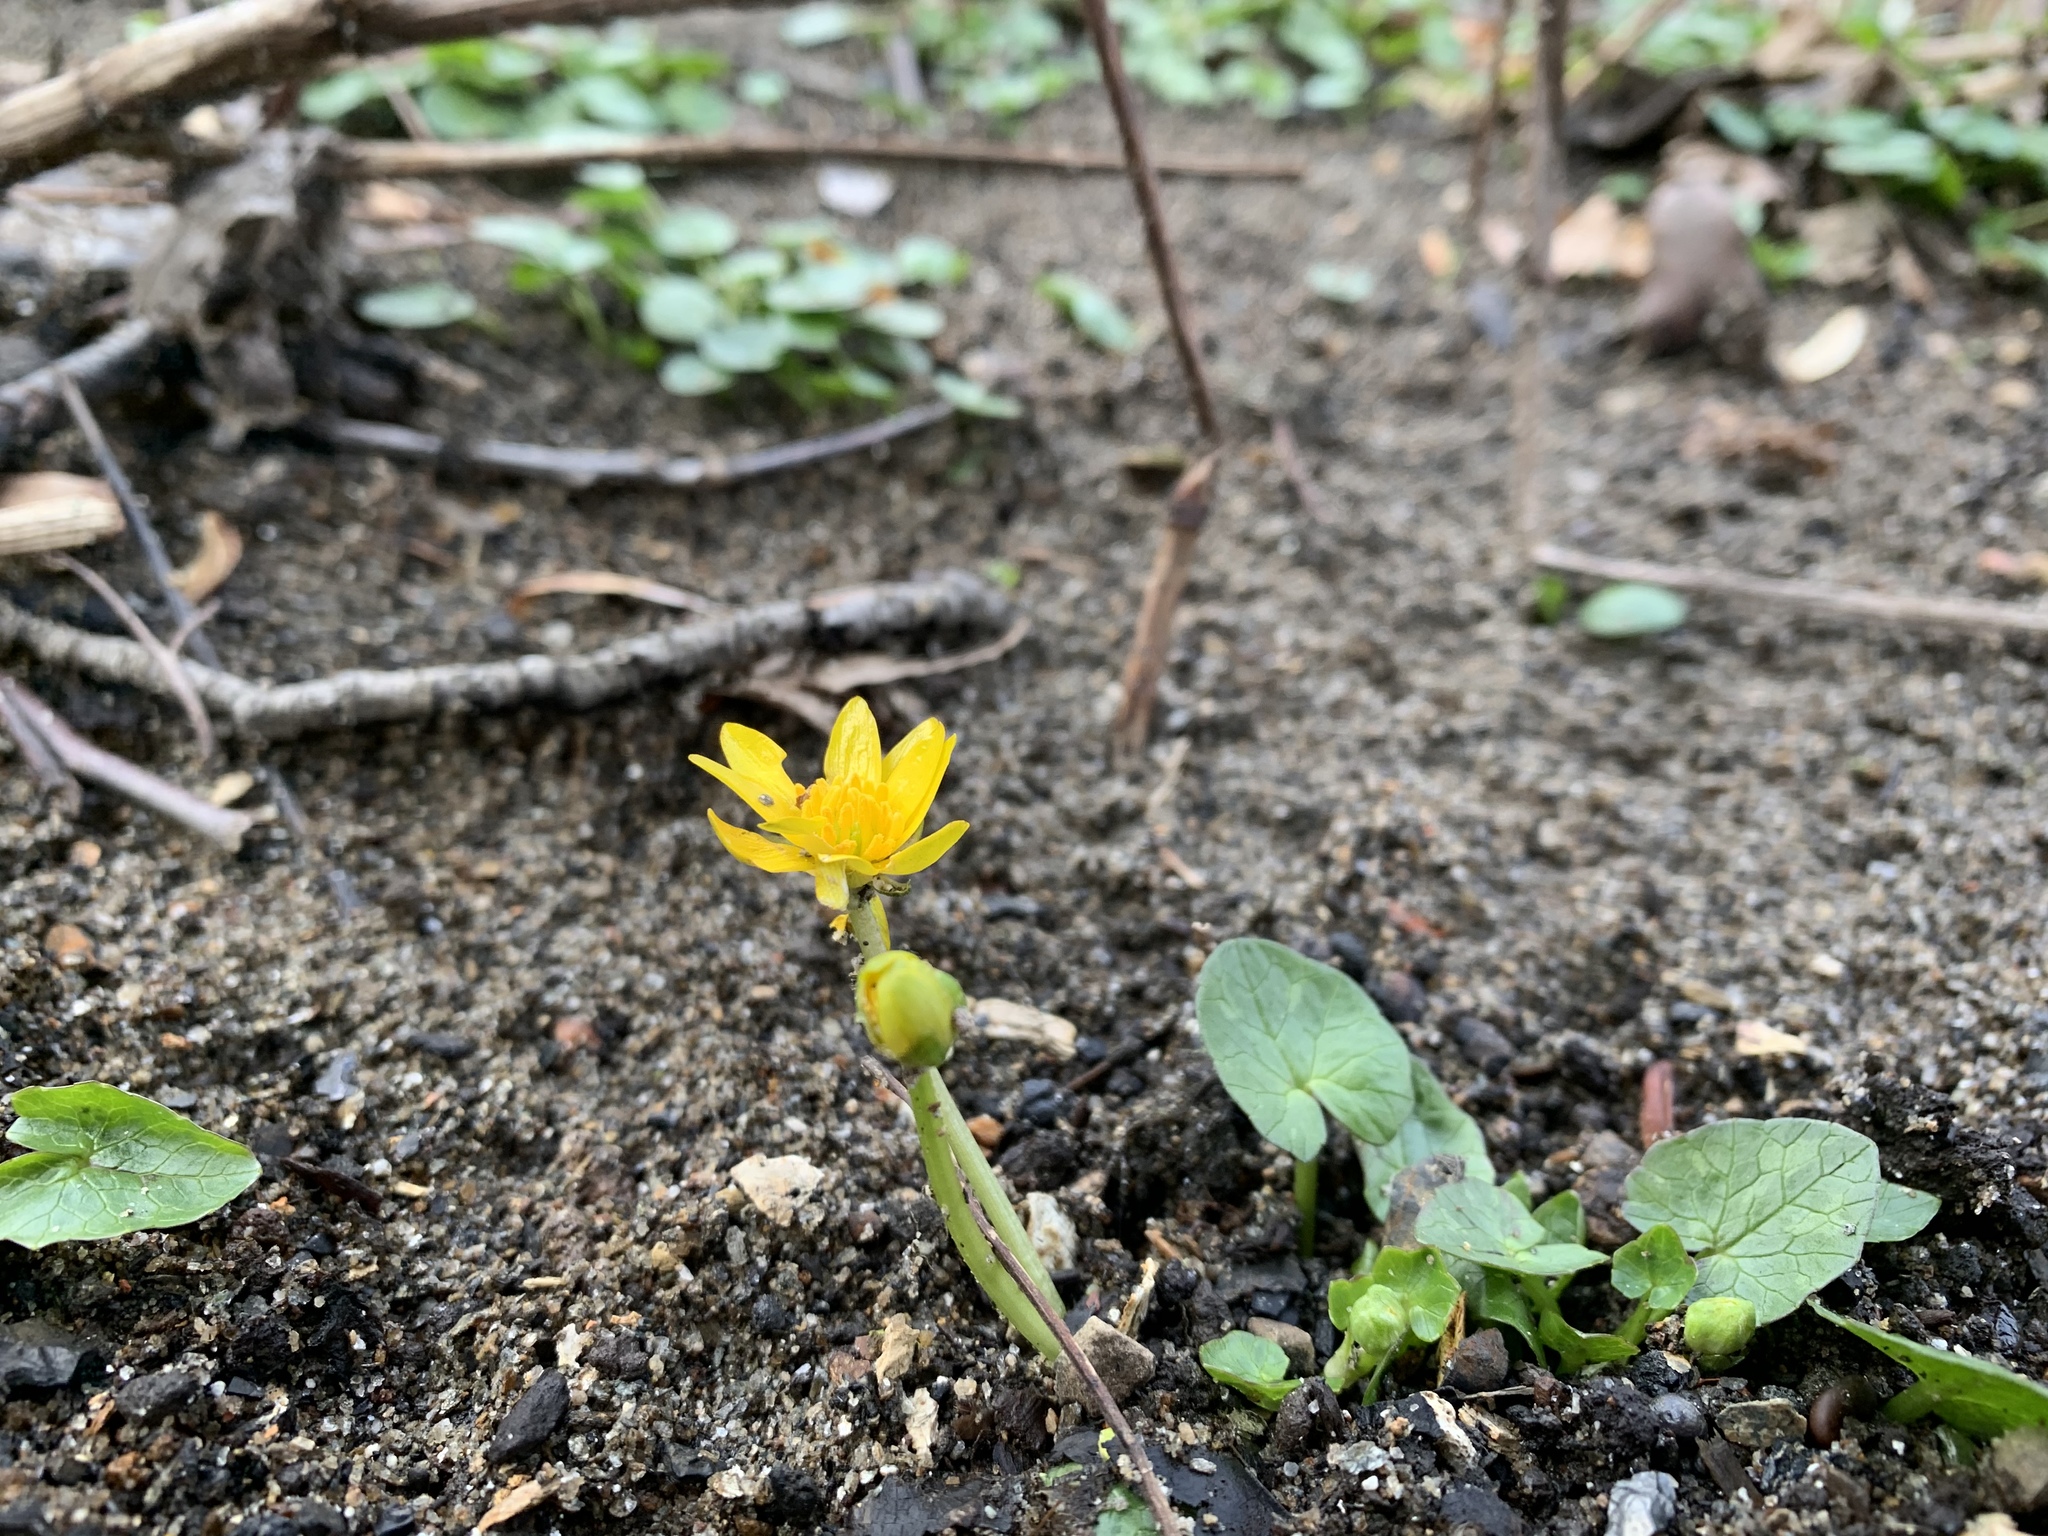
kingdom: Plantae
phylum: Tracheophyta
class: Magnoliopsida
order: Ranunculales
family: Ranunculaceae
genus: Ficaria
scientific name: Ficaria verna
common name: Lesser celandine
